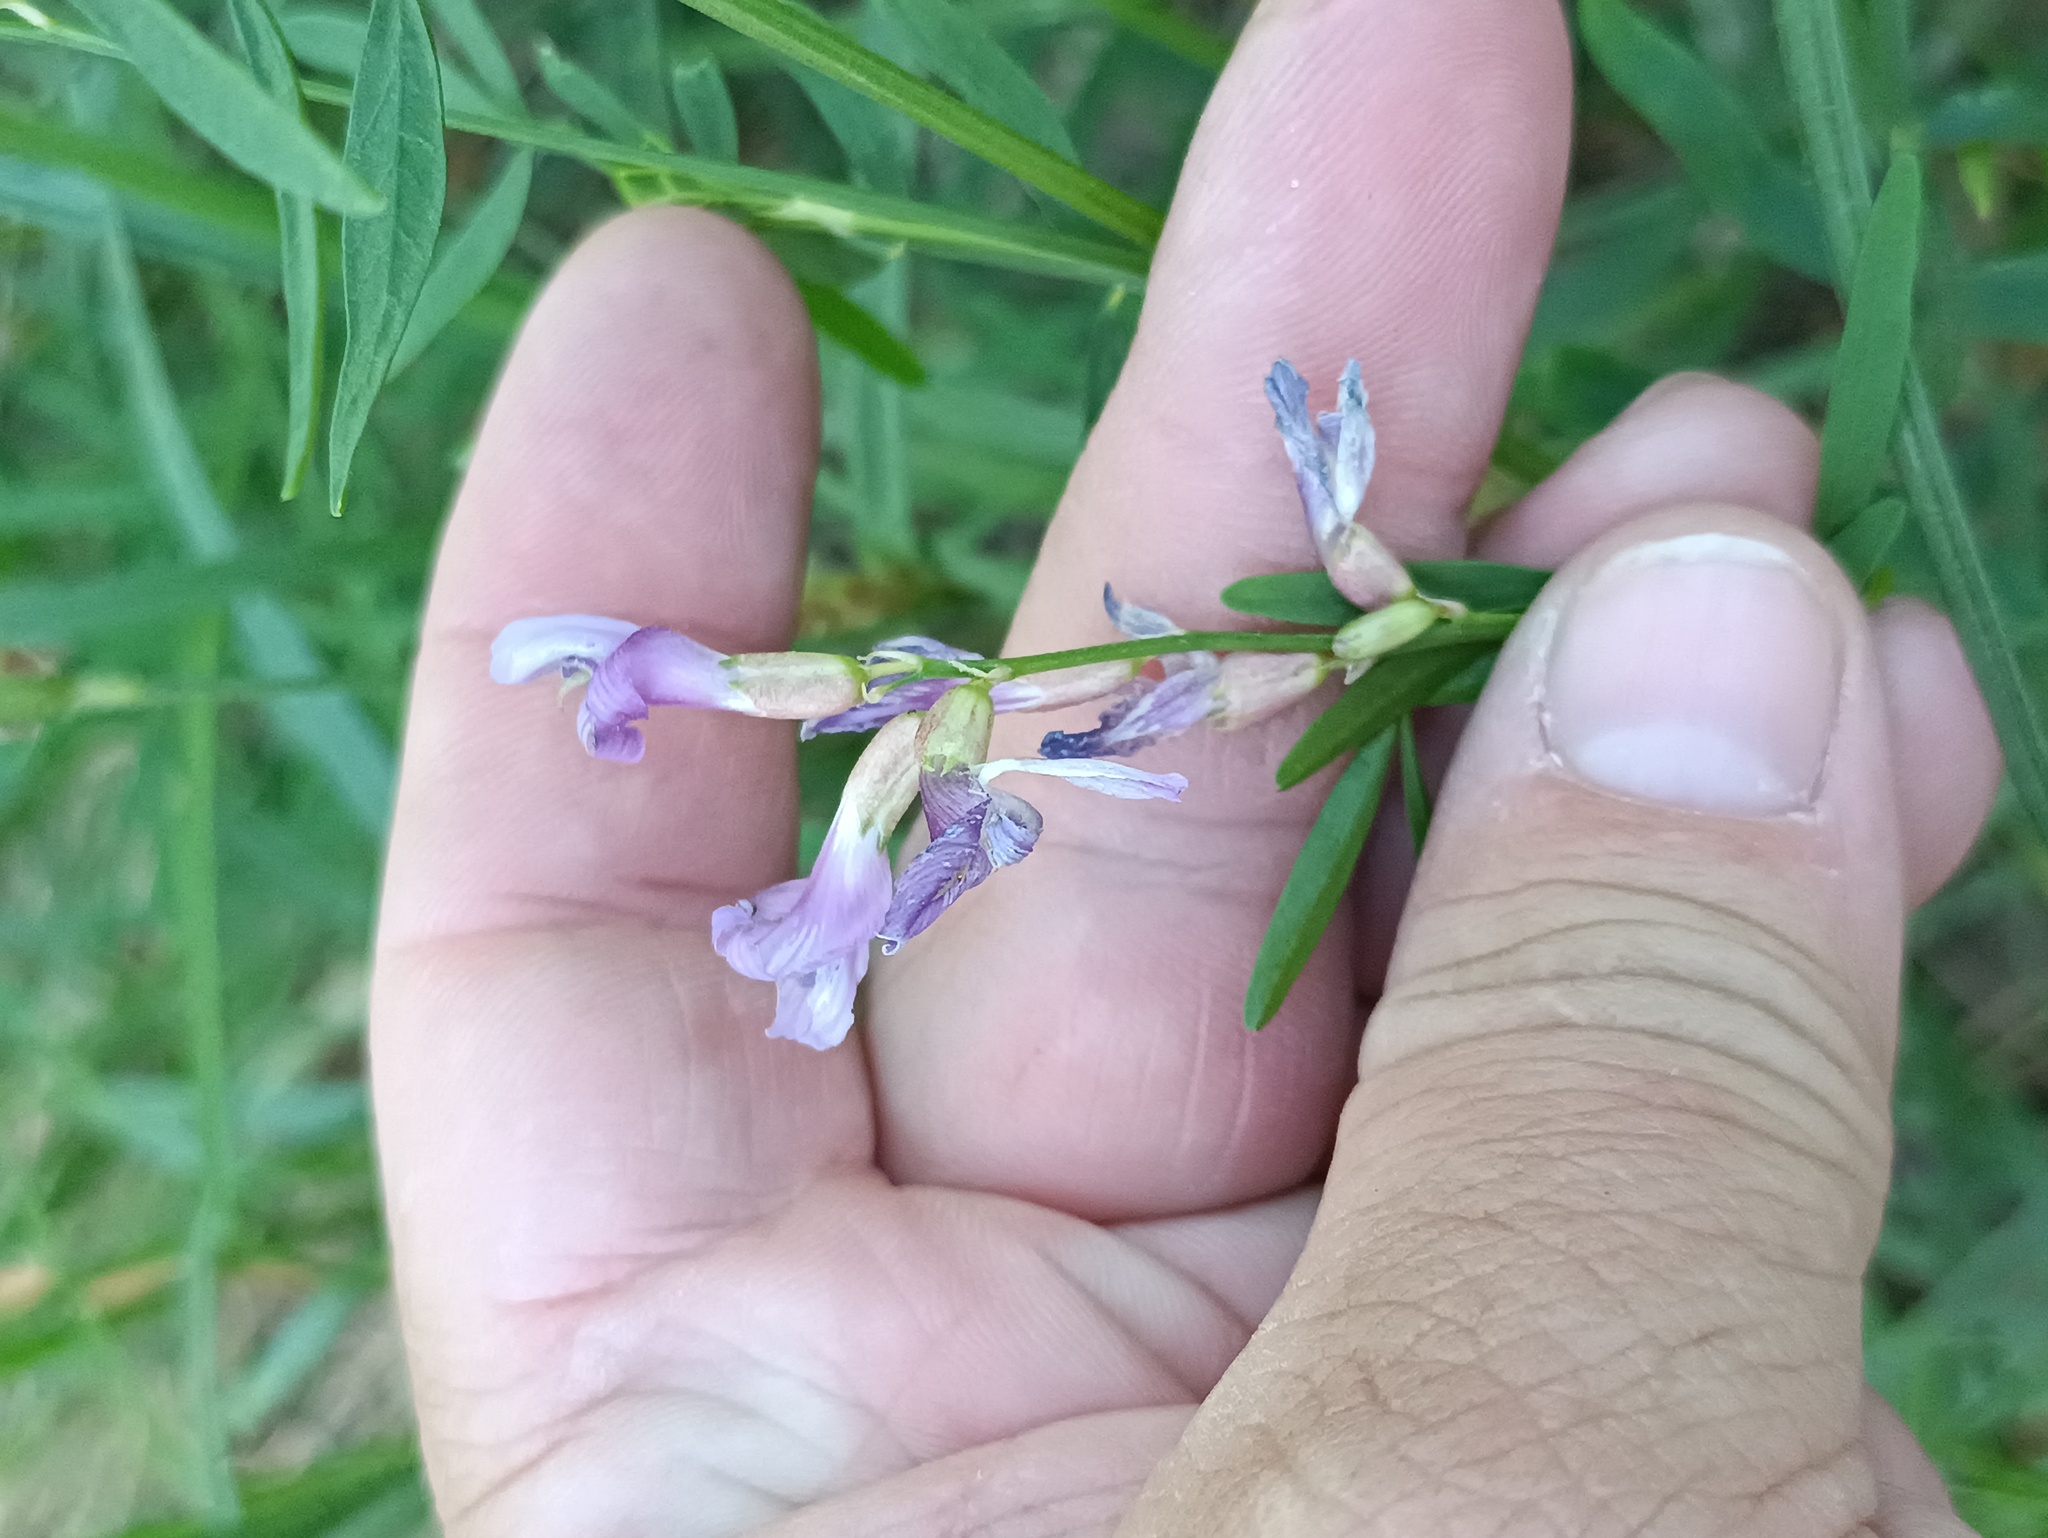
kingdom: Plantae
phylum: Tracheophyta
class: Magnoliopsida
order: Fabales
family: Fabaceae
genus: Astragalus
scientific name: Astragalus arenarius
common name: Arenarious milk-vetch
